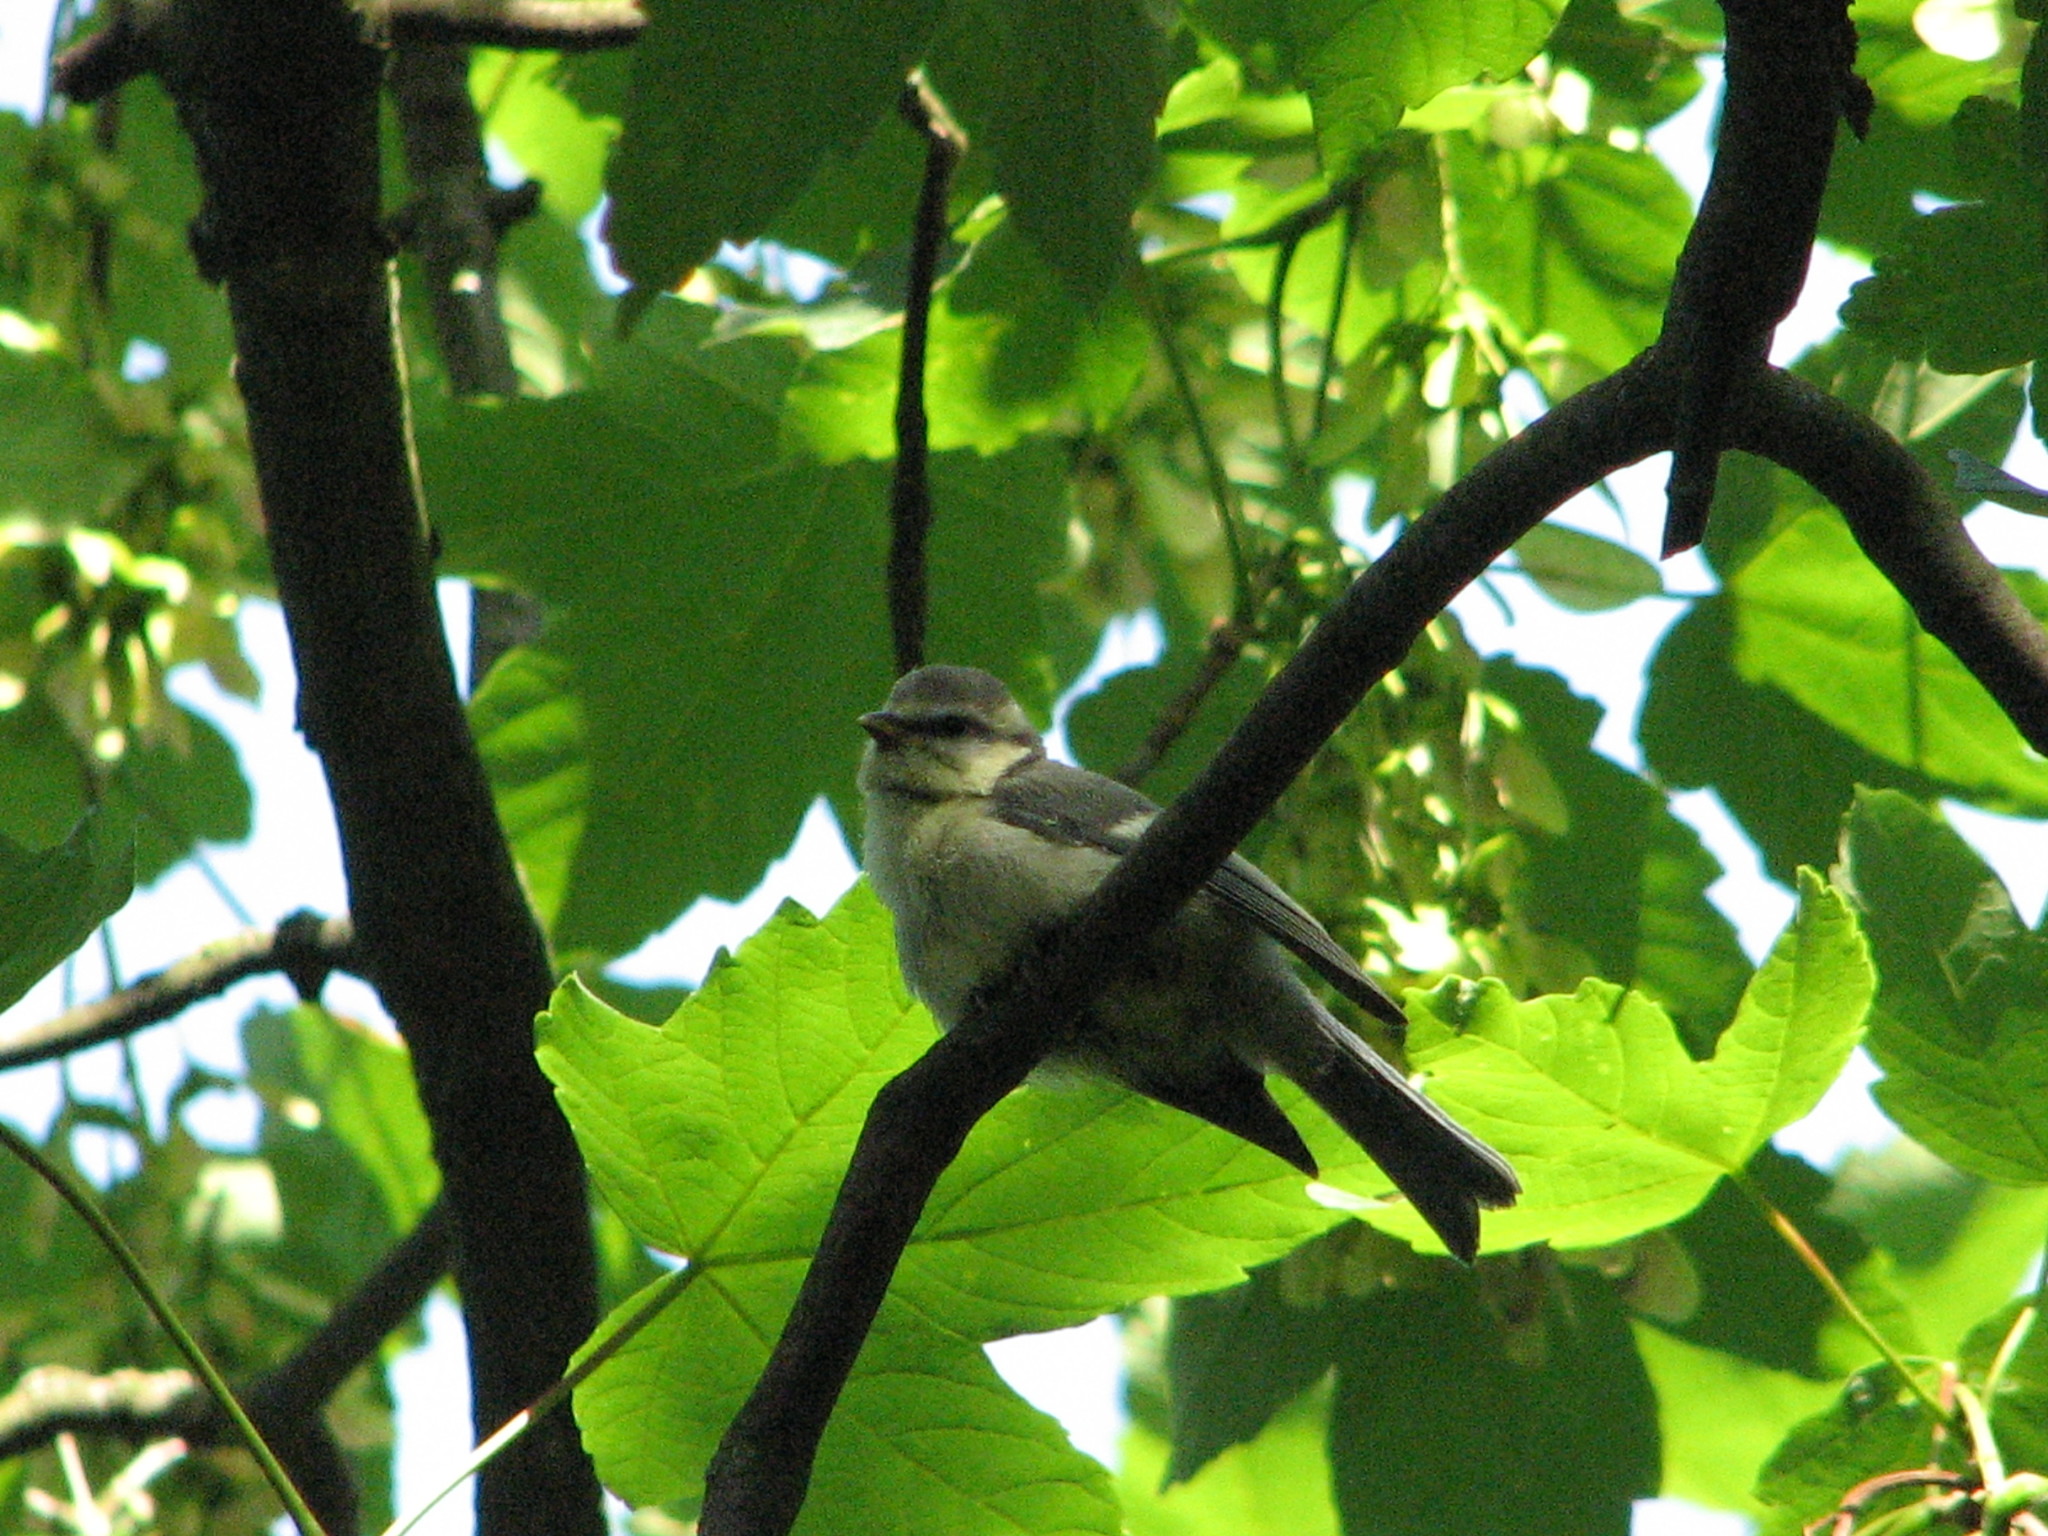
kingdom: Animalia
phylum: Chordata
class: Aves
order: Passeriformes
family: Paridae
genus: Cyanistes
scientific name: Cyanistes caeruleus
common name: Eurasian blue tit
